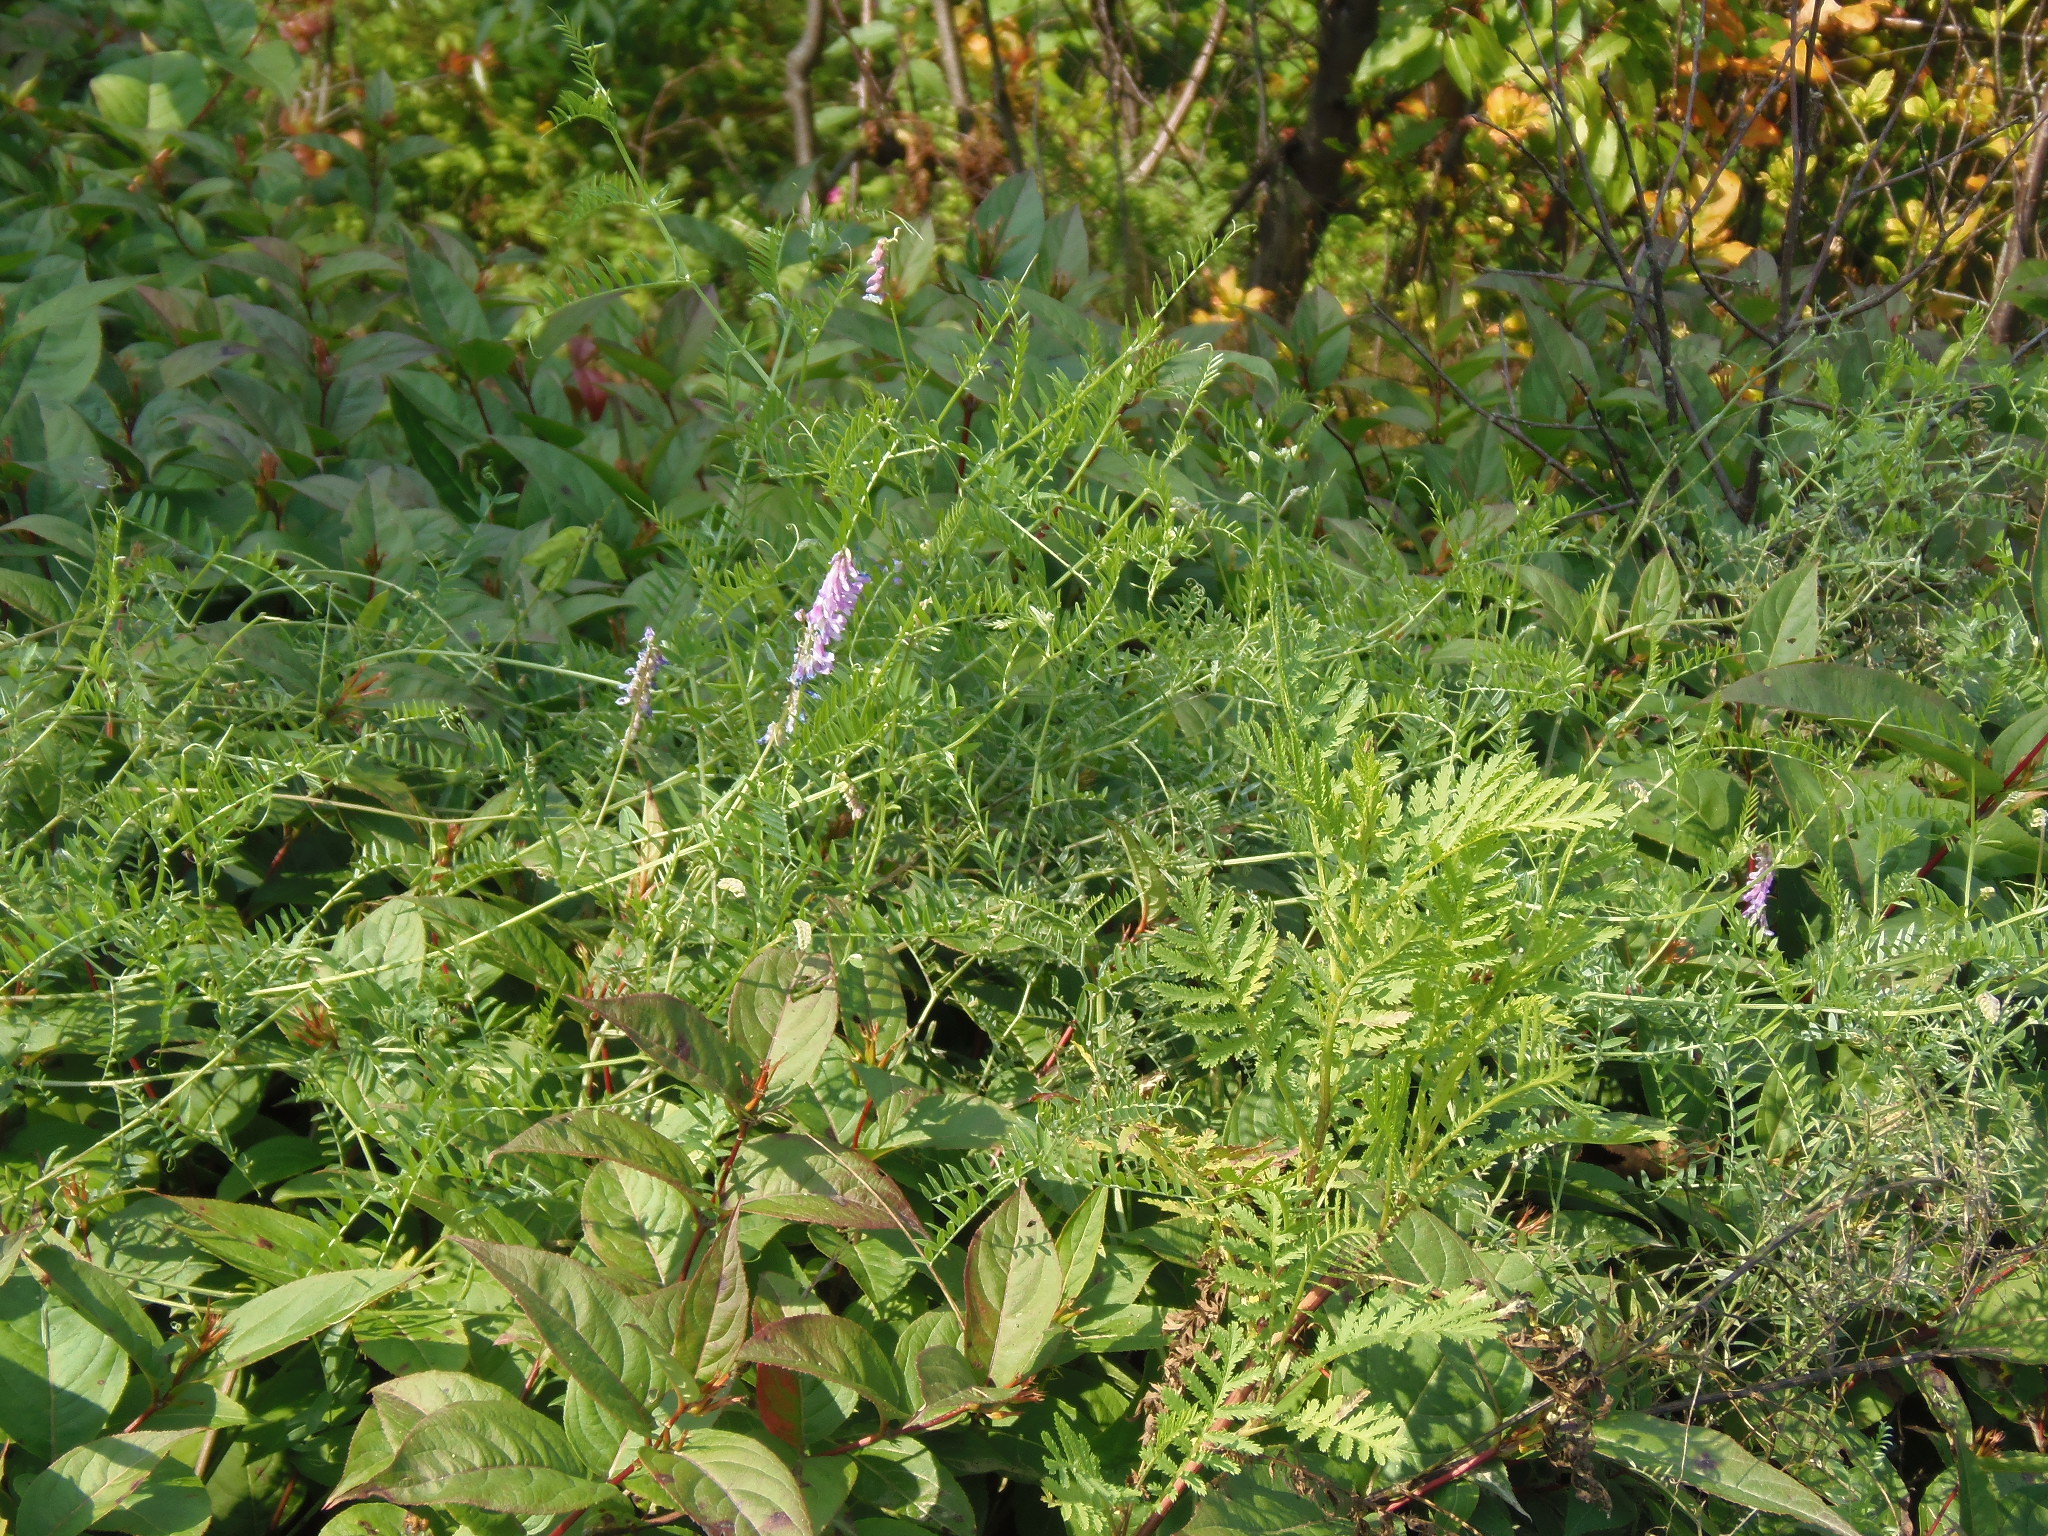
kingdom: Plantae
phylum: Tracheophyta
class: Magnoliopsida
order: Fabales
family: Fabaceae
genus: Vicia
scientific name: Vicia cracca
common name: Bird vetch
